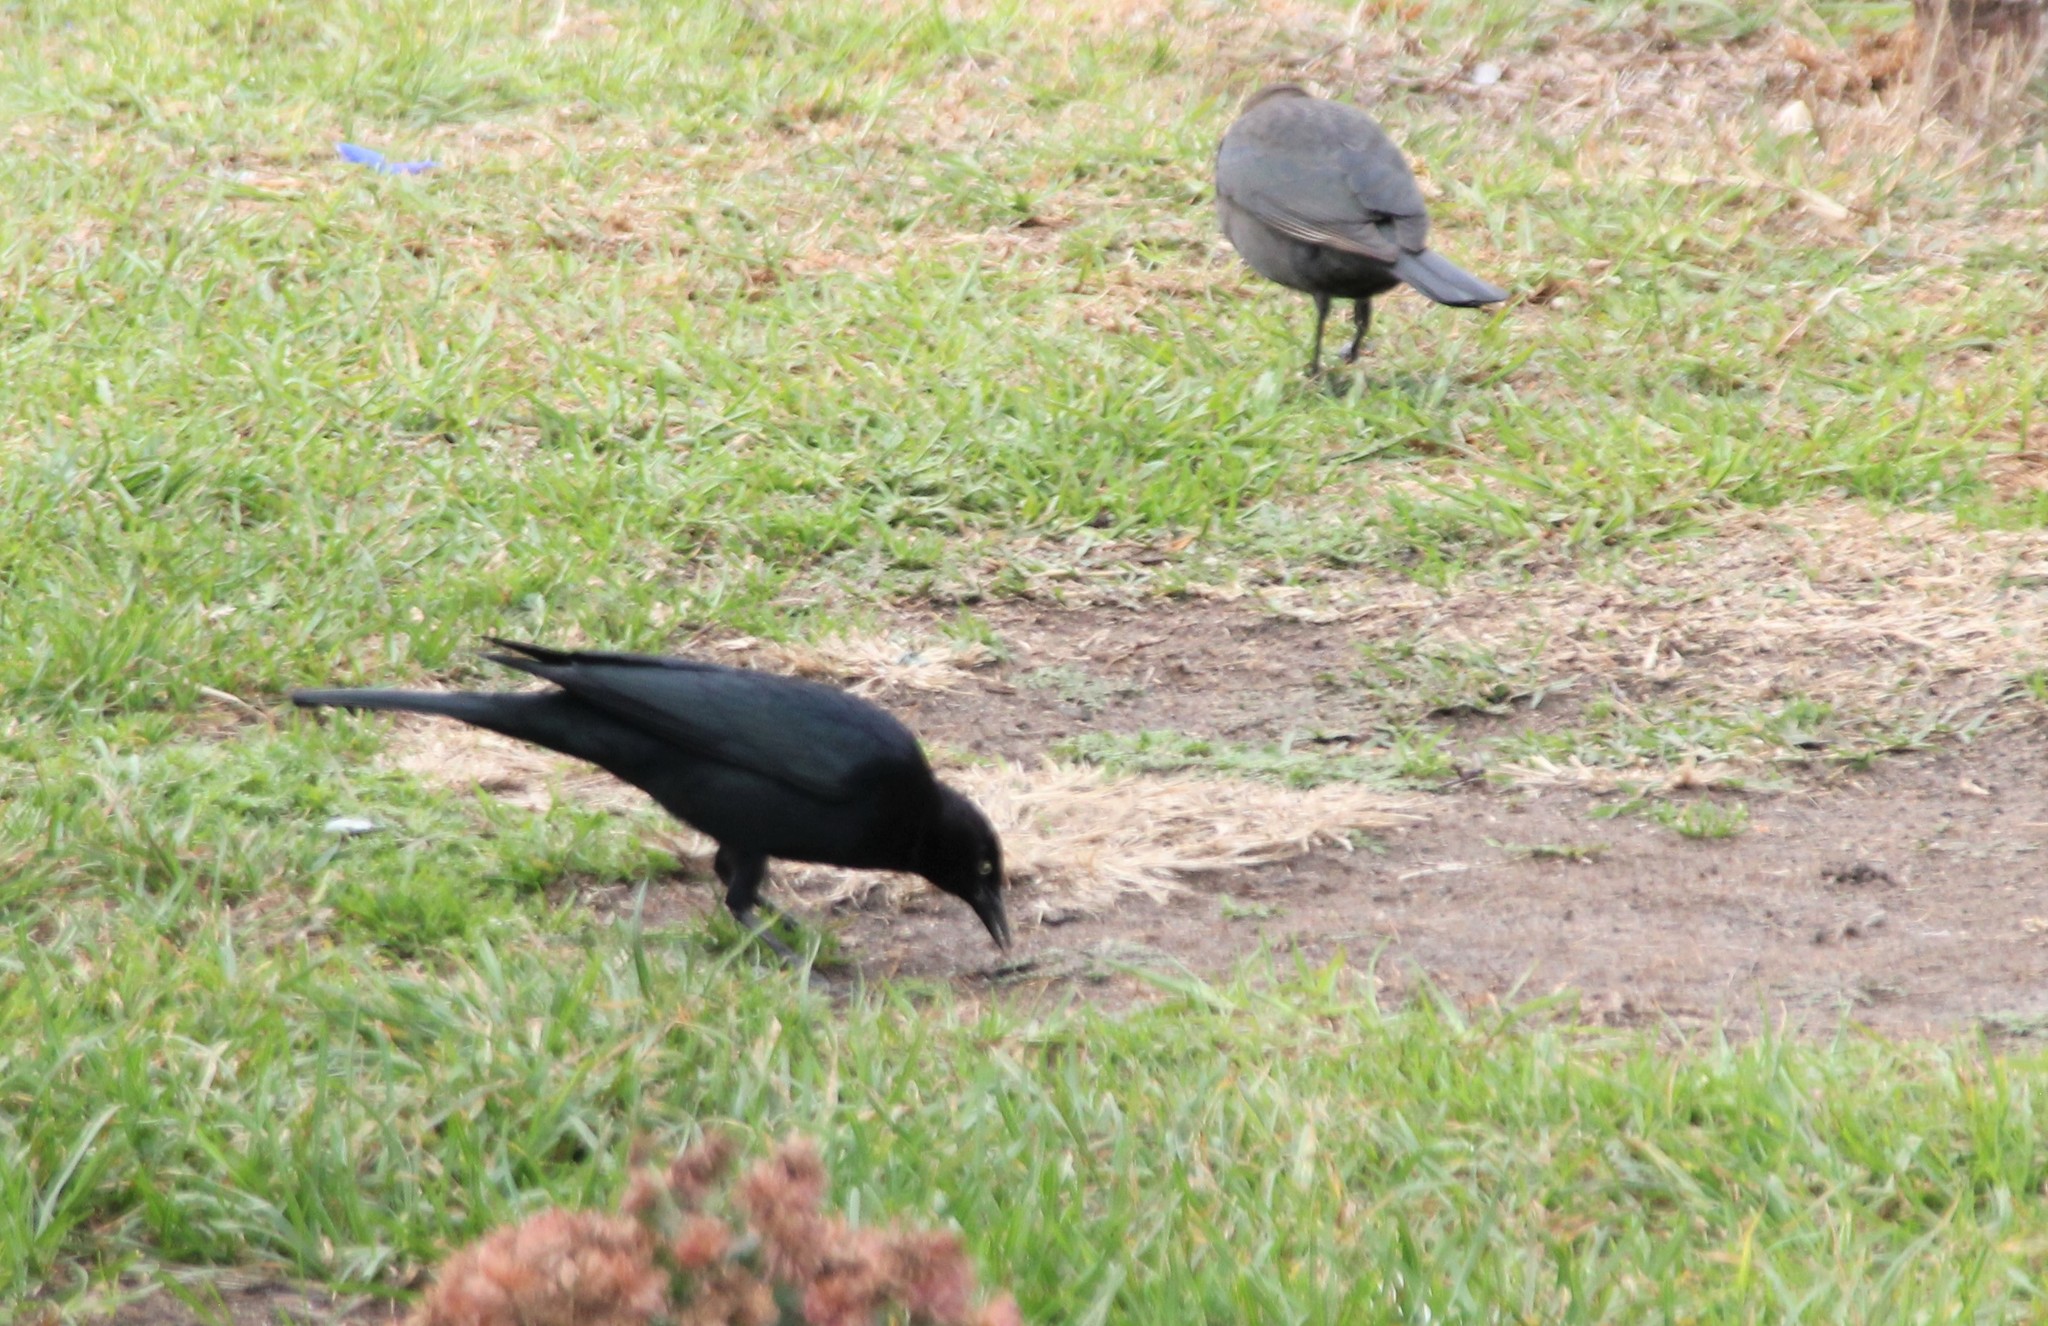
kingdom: Animalia
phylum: Chordata
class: Aves
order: Passeriformes
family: Icteridae
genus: Euphagus
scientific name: Euphagus cyanocephalus
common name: Brewer's blackbird
